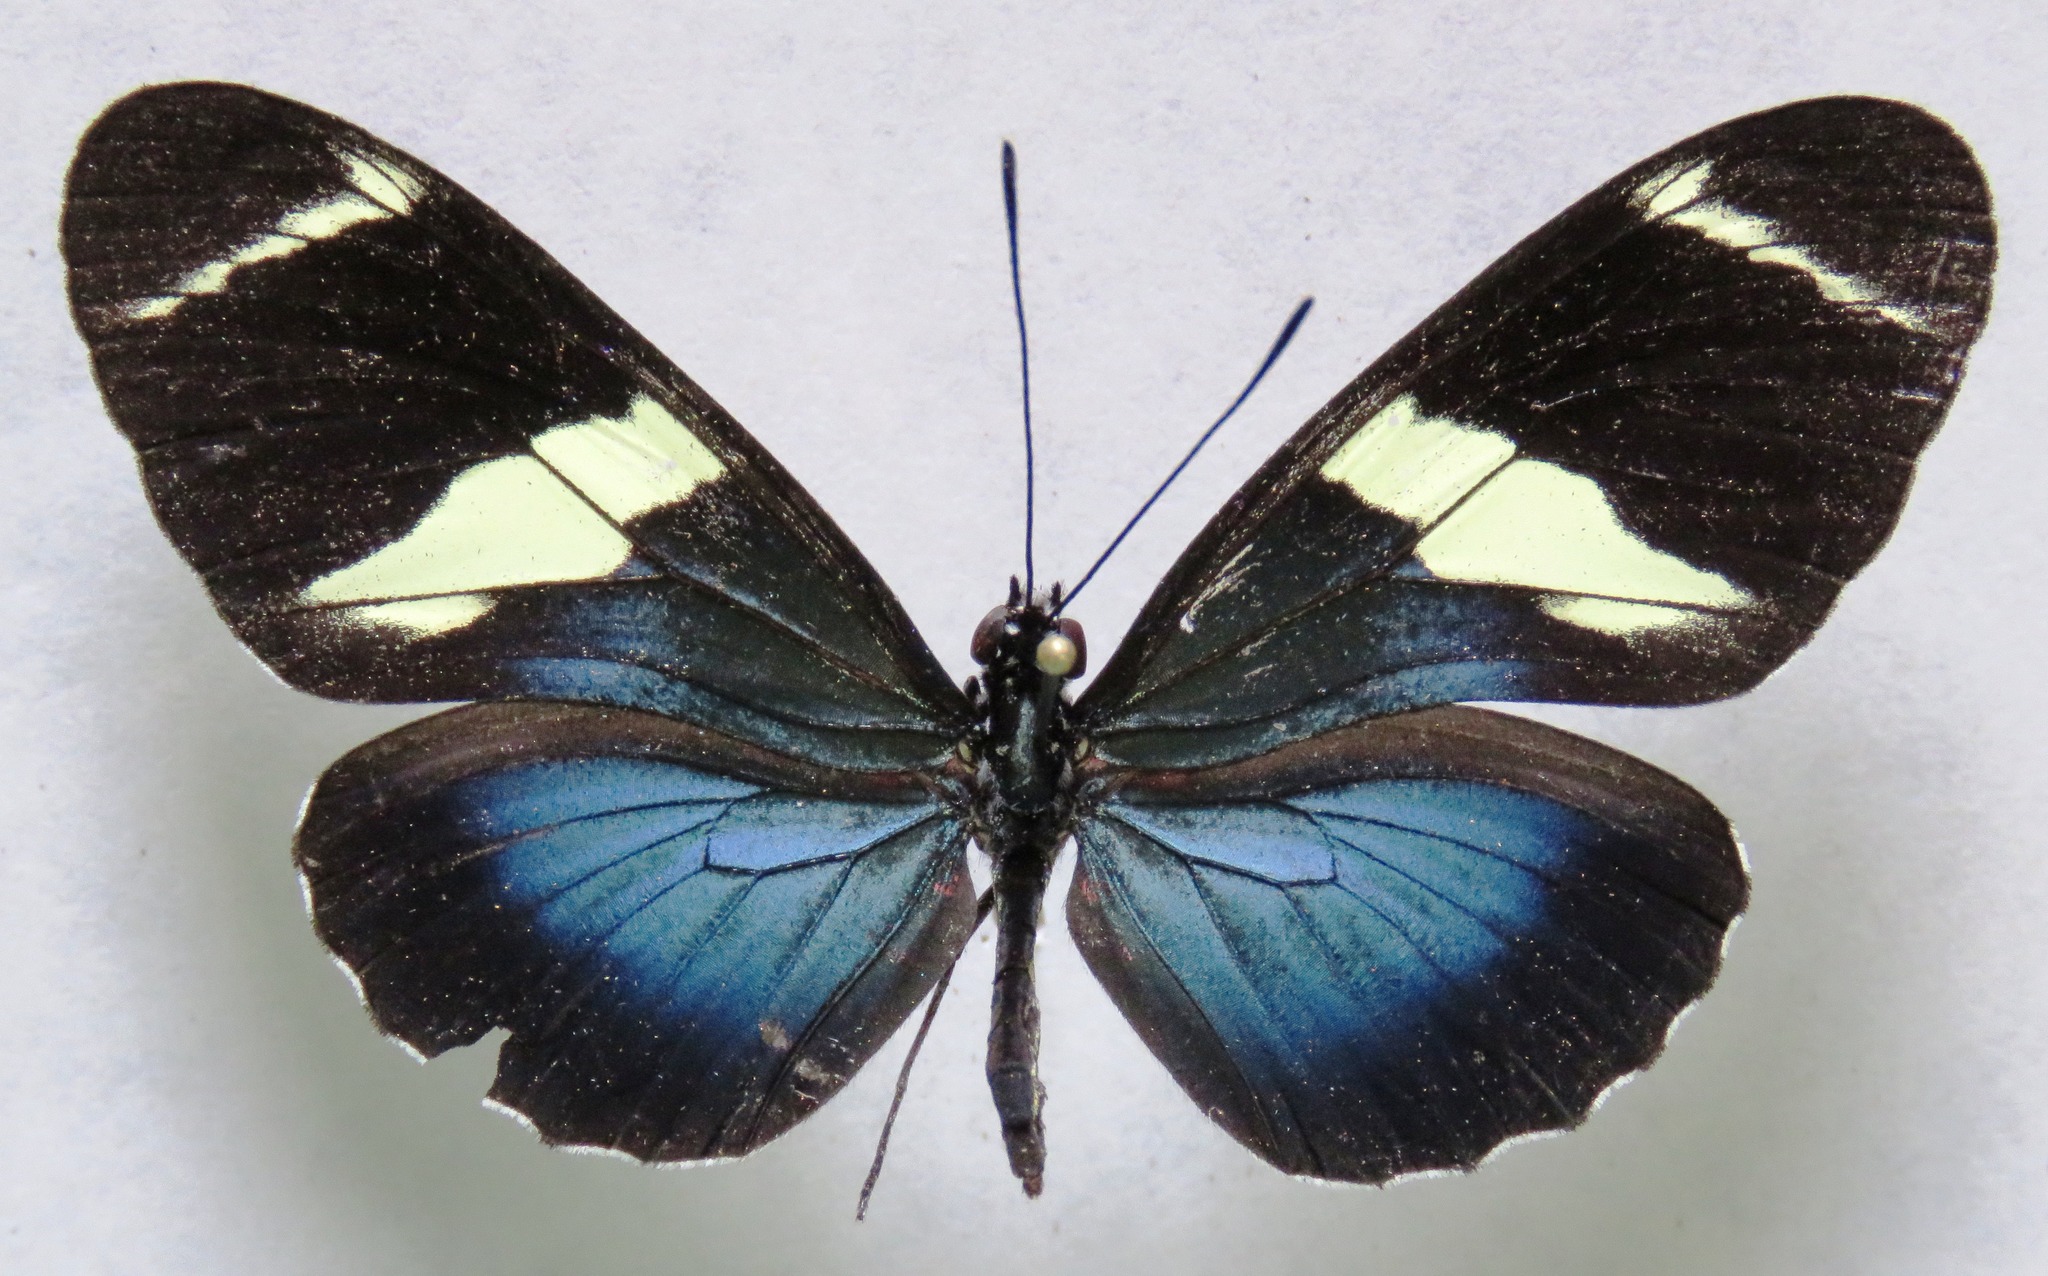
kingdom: Animalia
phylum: Arthropoda
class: Insecta
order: Lepidoptera
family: Nymphalidae
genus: Heliconius
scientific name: Heliconius sara
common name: Sara longwing
